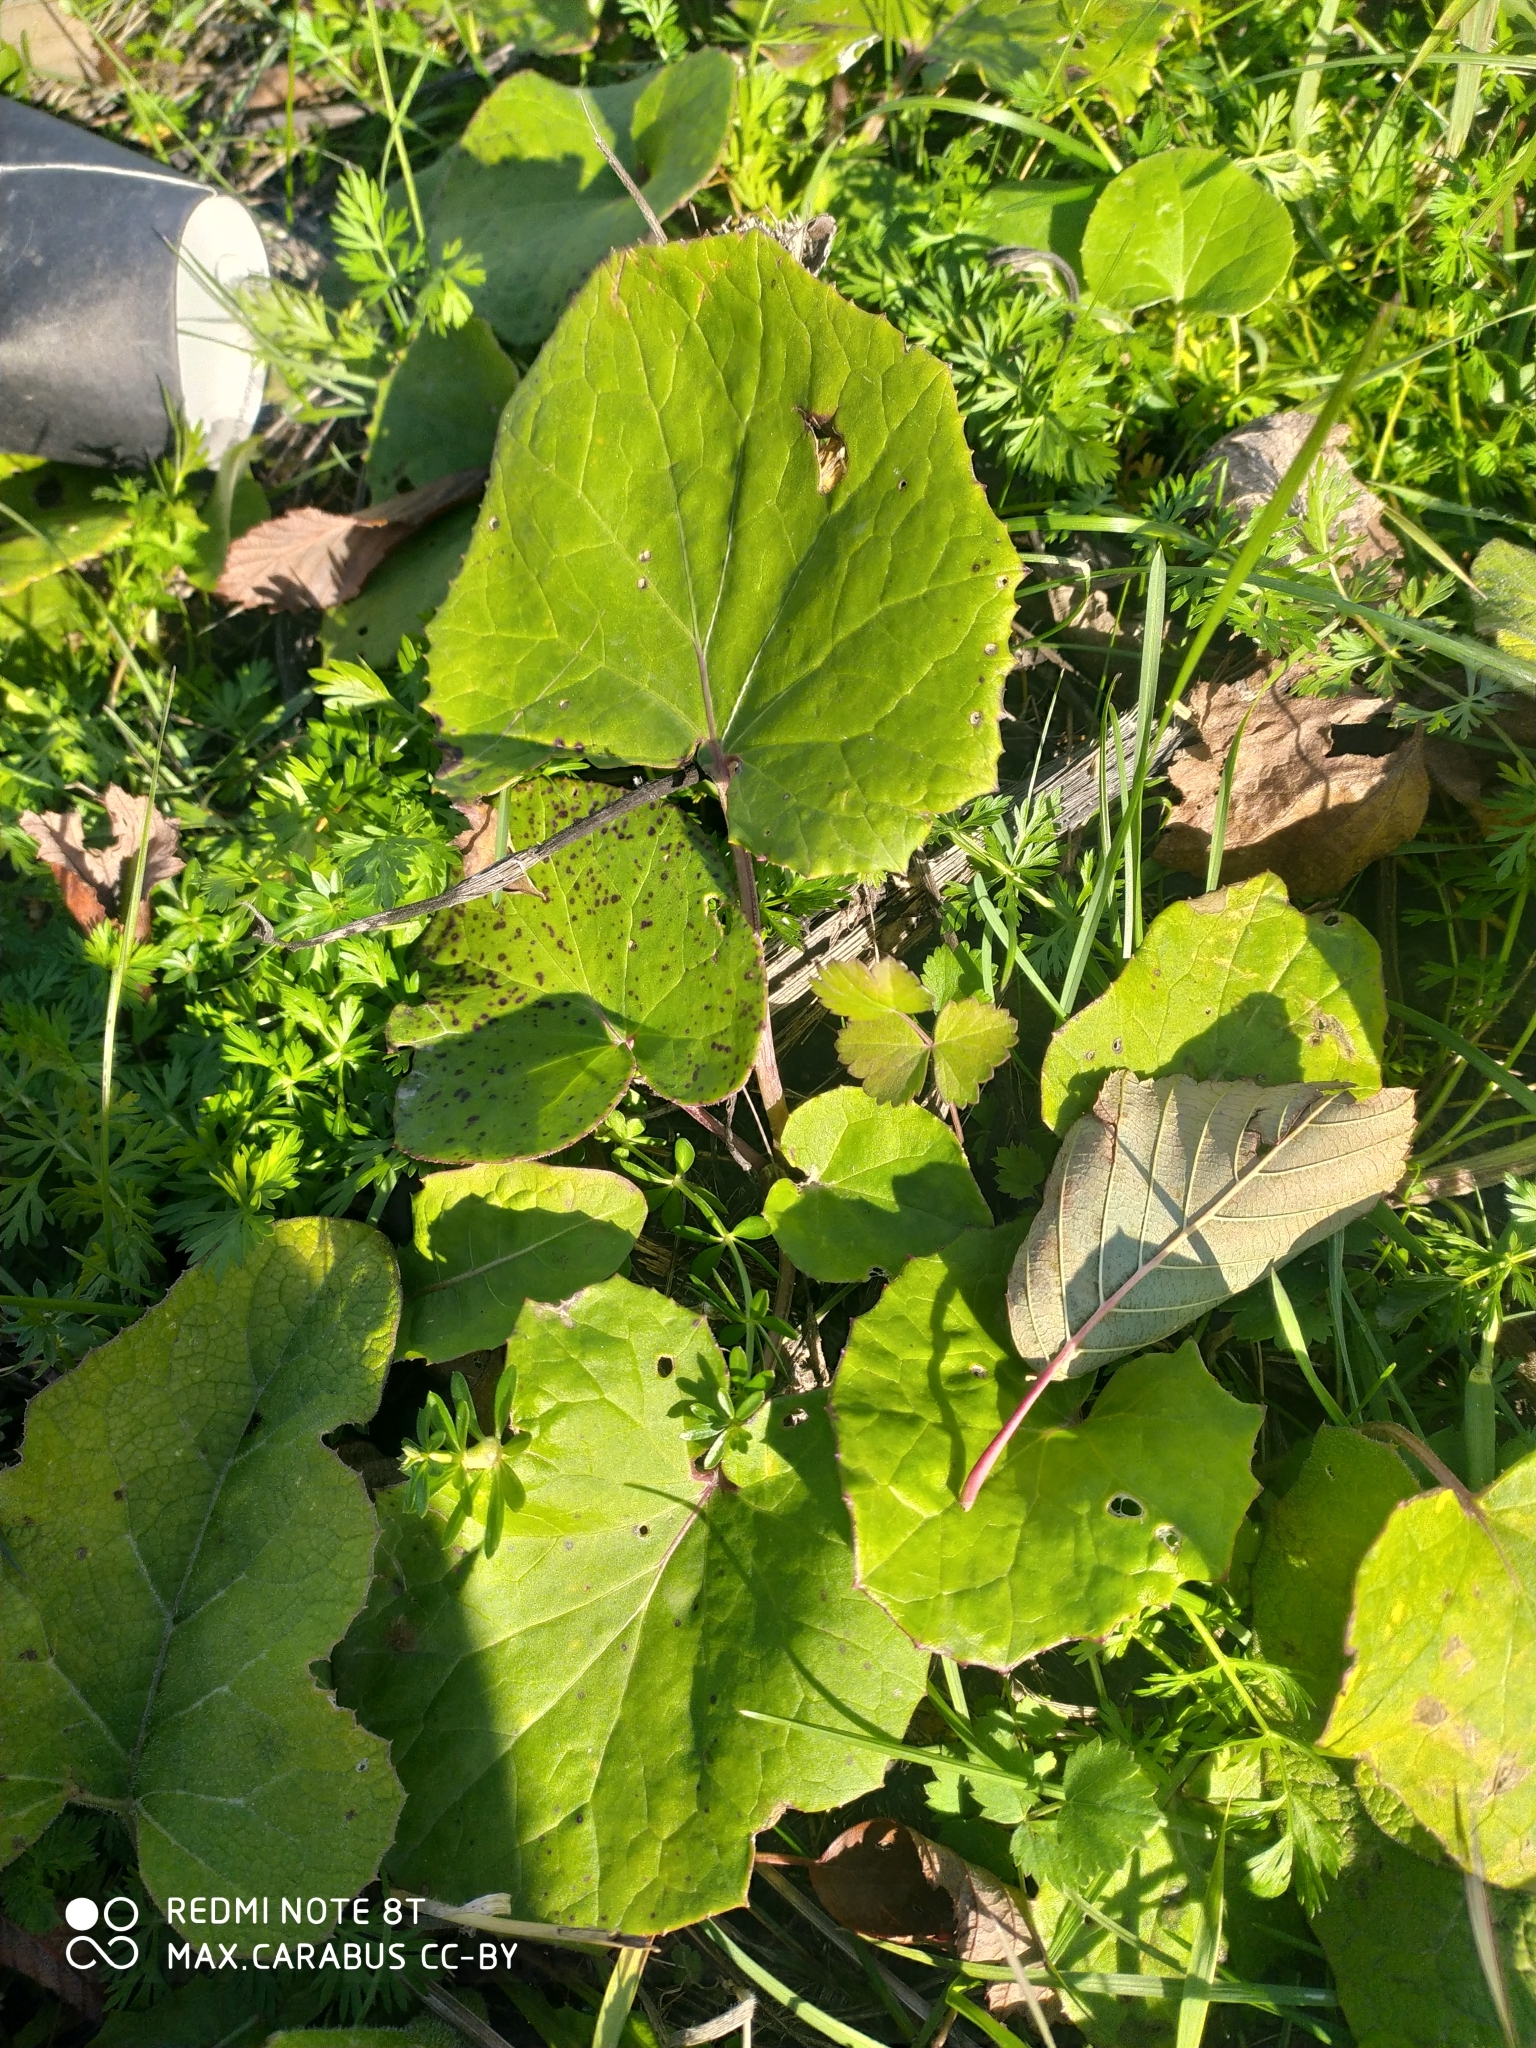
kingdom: Plantae
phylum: Tracheophyta
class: Magnoliopsida
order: Asterales
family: Asteraceae
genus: Tussilago
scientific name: Tussilago farfara
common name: Coltsfoot
